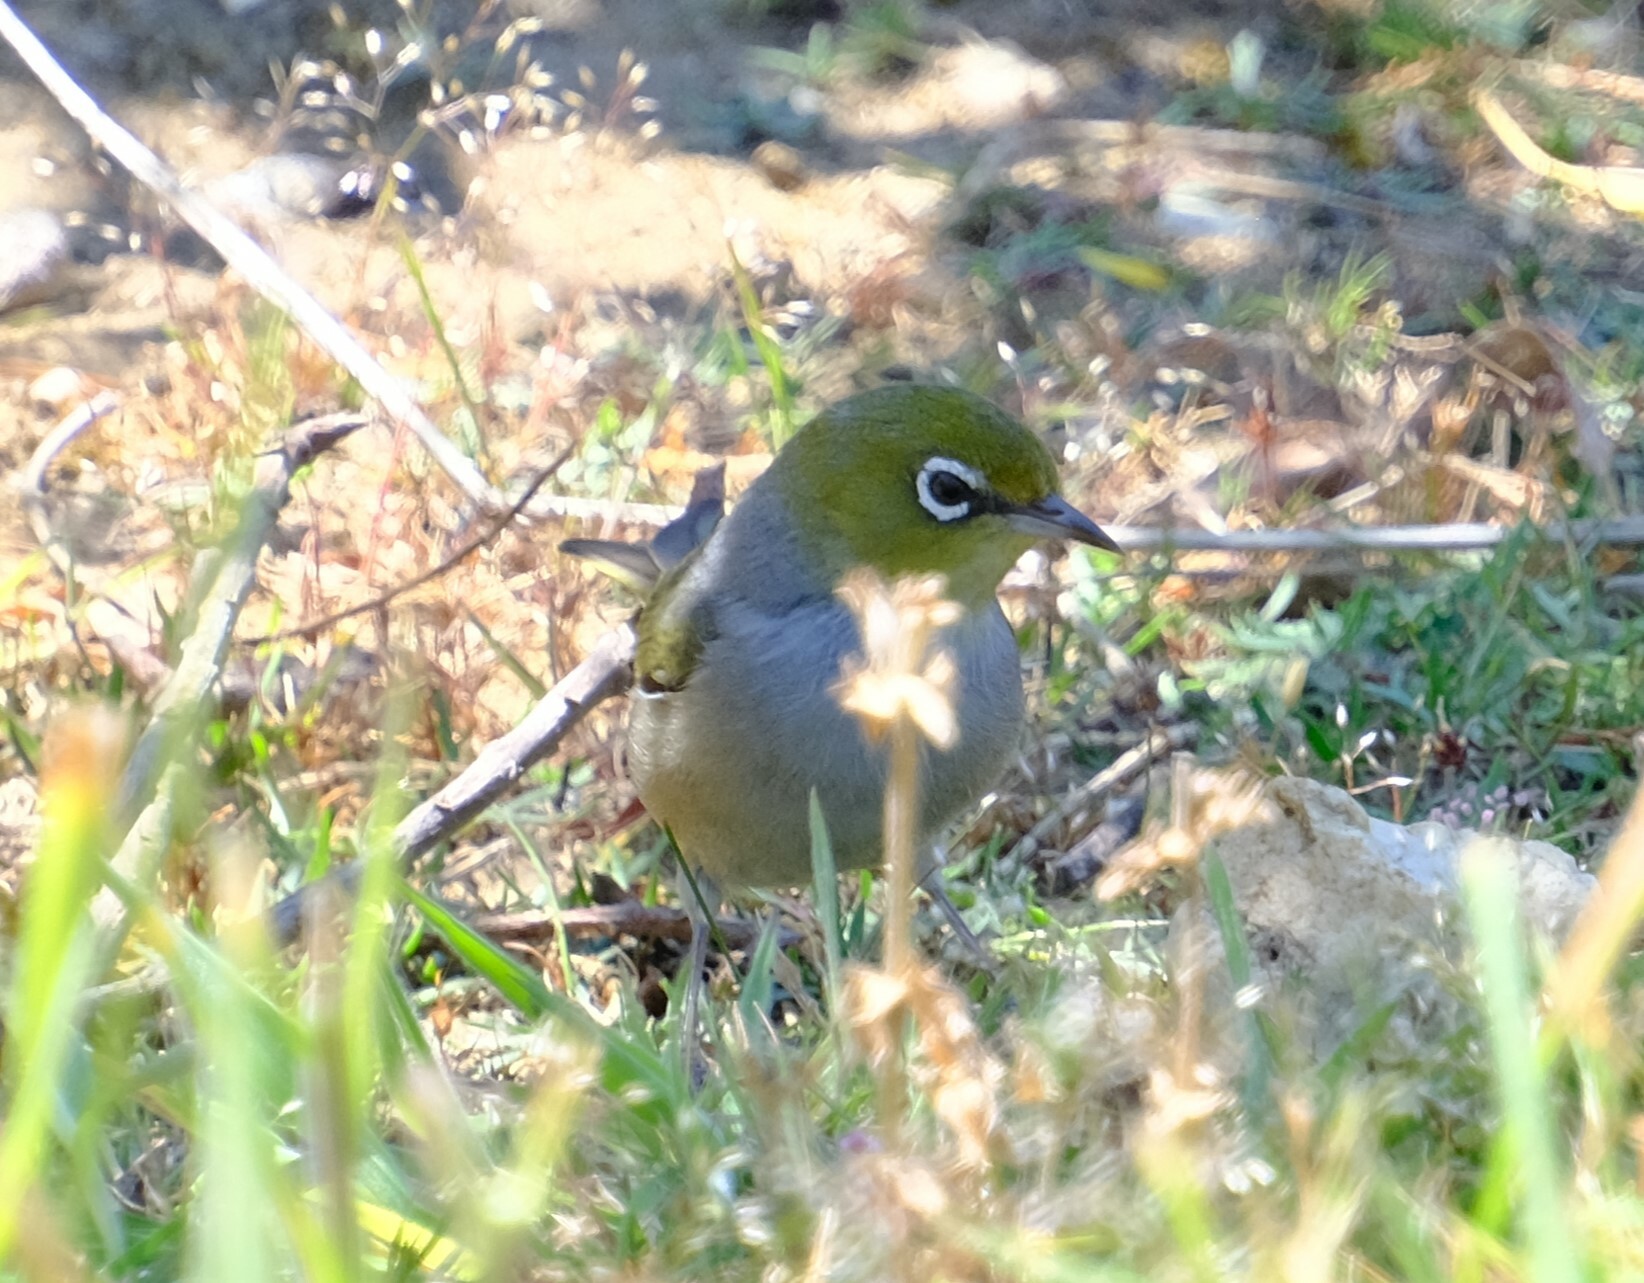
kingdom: Animalia
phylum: Chordata
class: Aves
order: Passeriformes
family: Zosteropidae
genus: Zosterops
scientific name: Zosterops lateralis
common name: Silvereye
